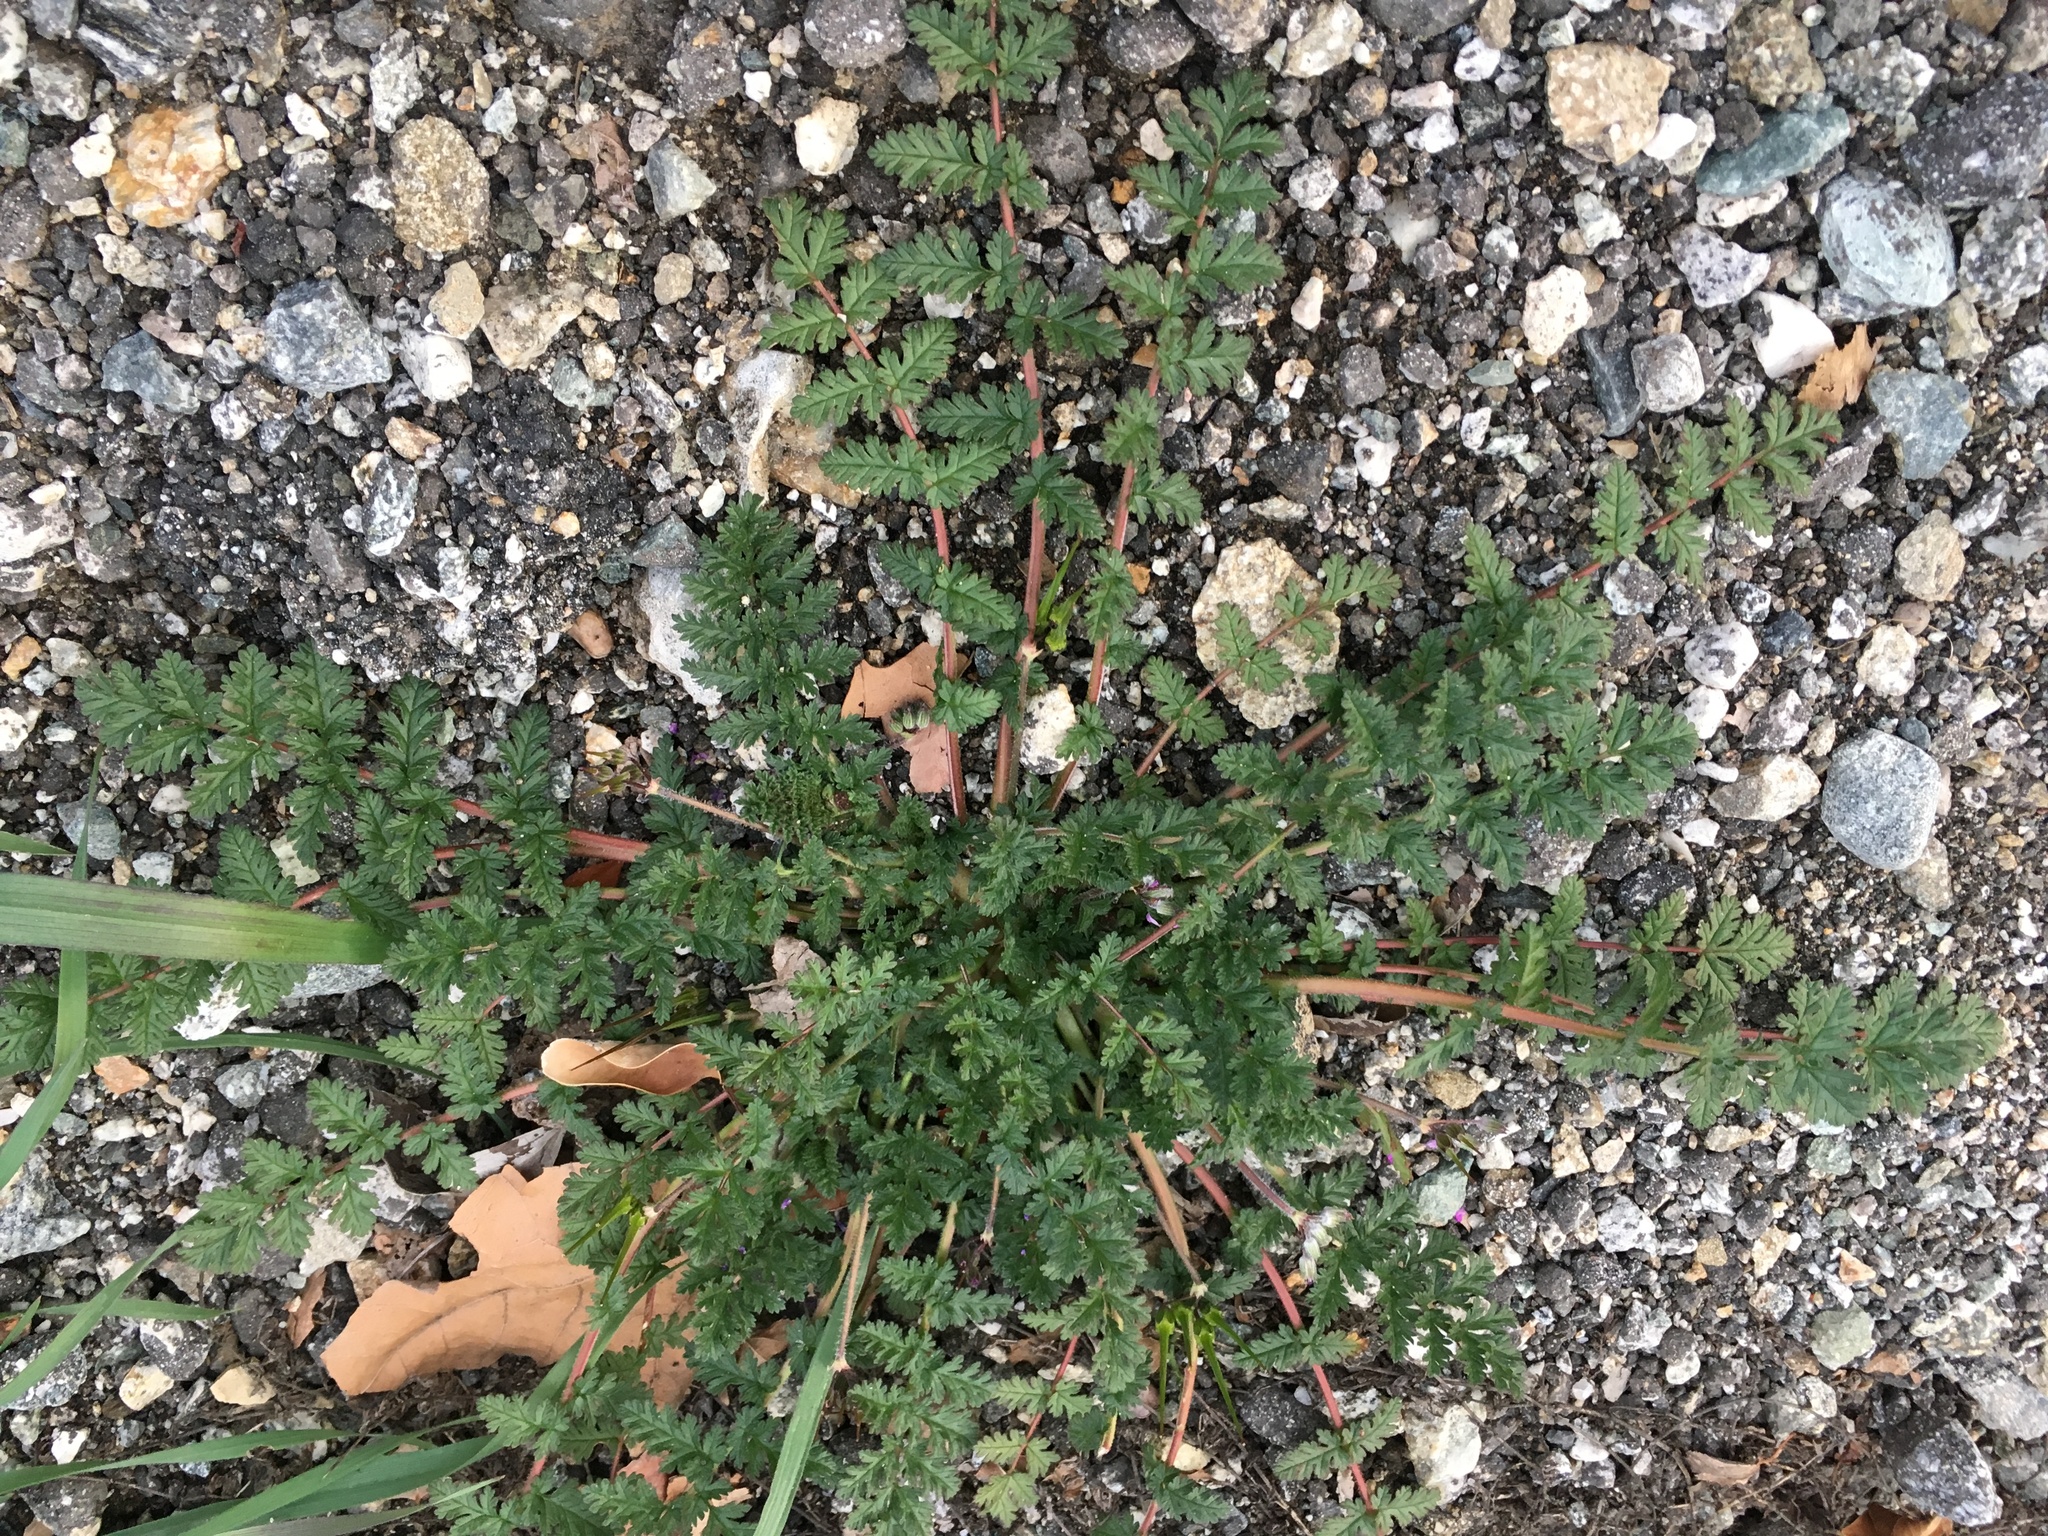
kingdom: Plantae
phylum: Tracheophyta
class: Magnoliopsida
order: Geraniales
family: Geraniaceae
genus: Erodium
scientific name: Erodium cicutarium
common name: Common stork's-bill
